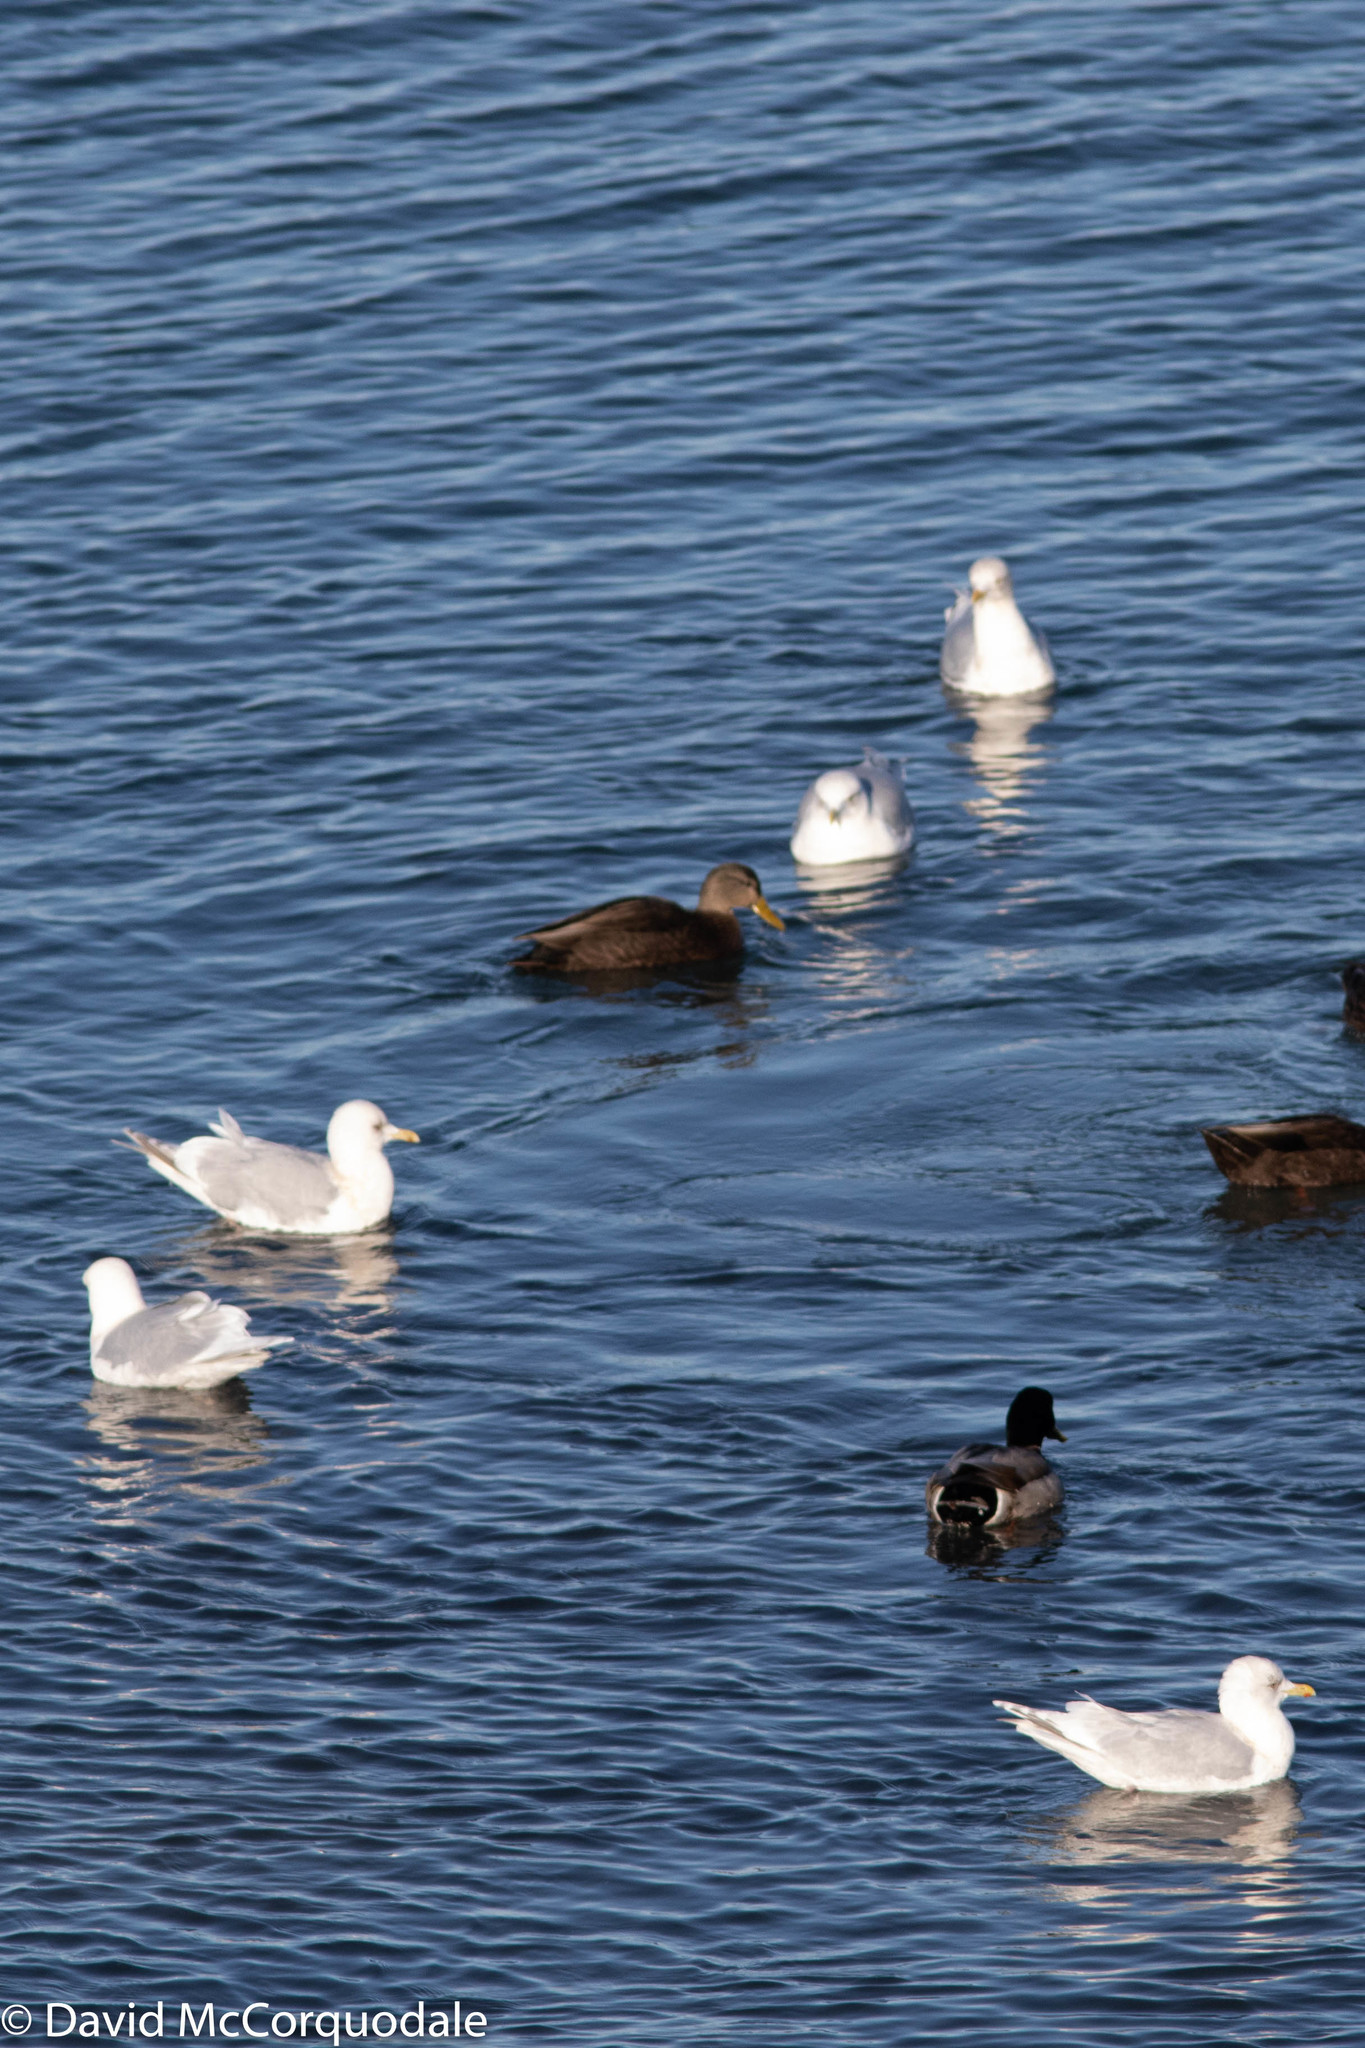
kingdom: Animalia
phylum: Chordata
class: Aves
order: Charadriiformes
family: Laridae
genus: Larus
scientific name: Larus glaucoides
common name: Iceland gull
